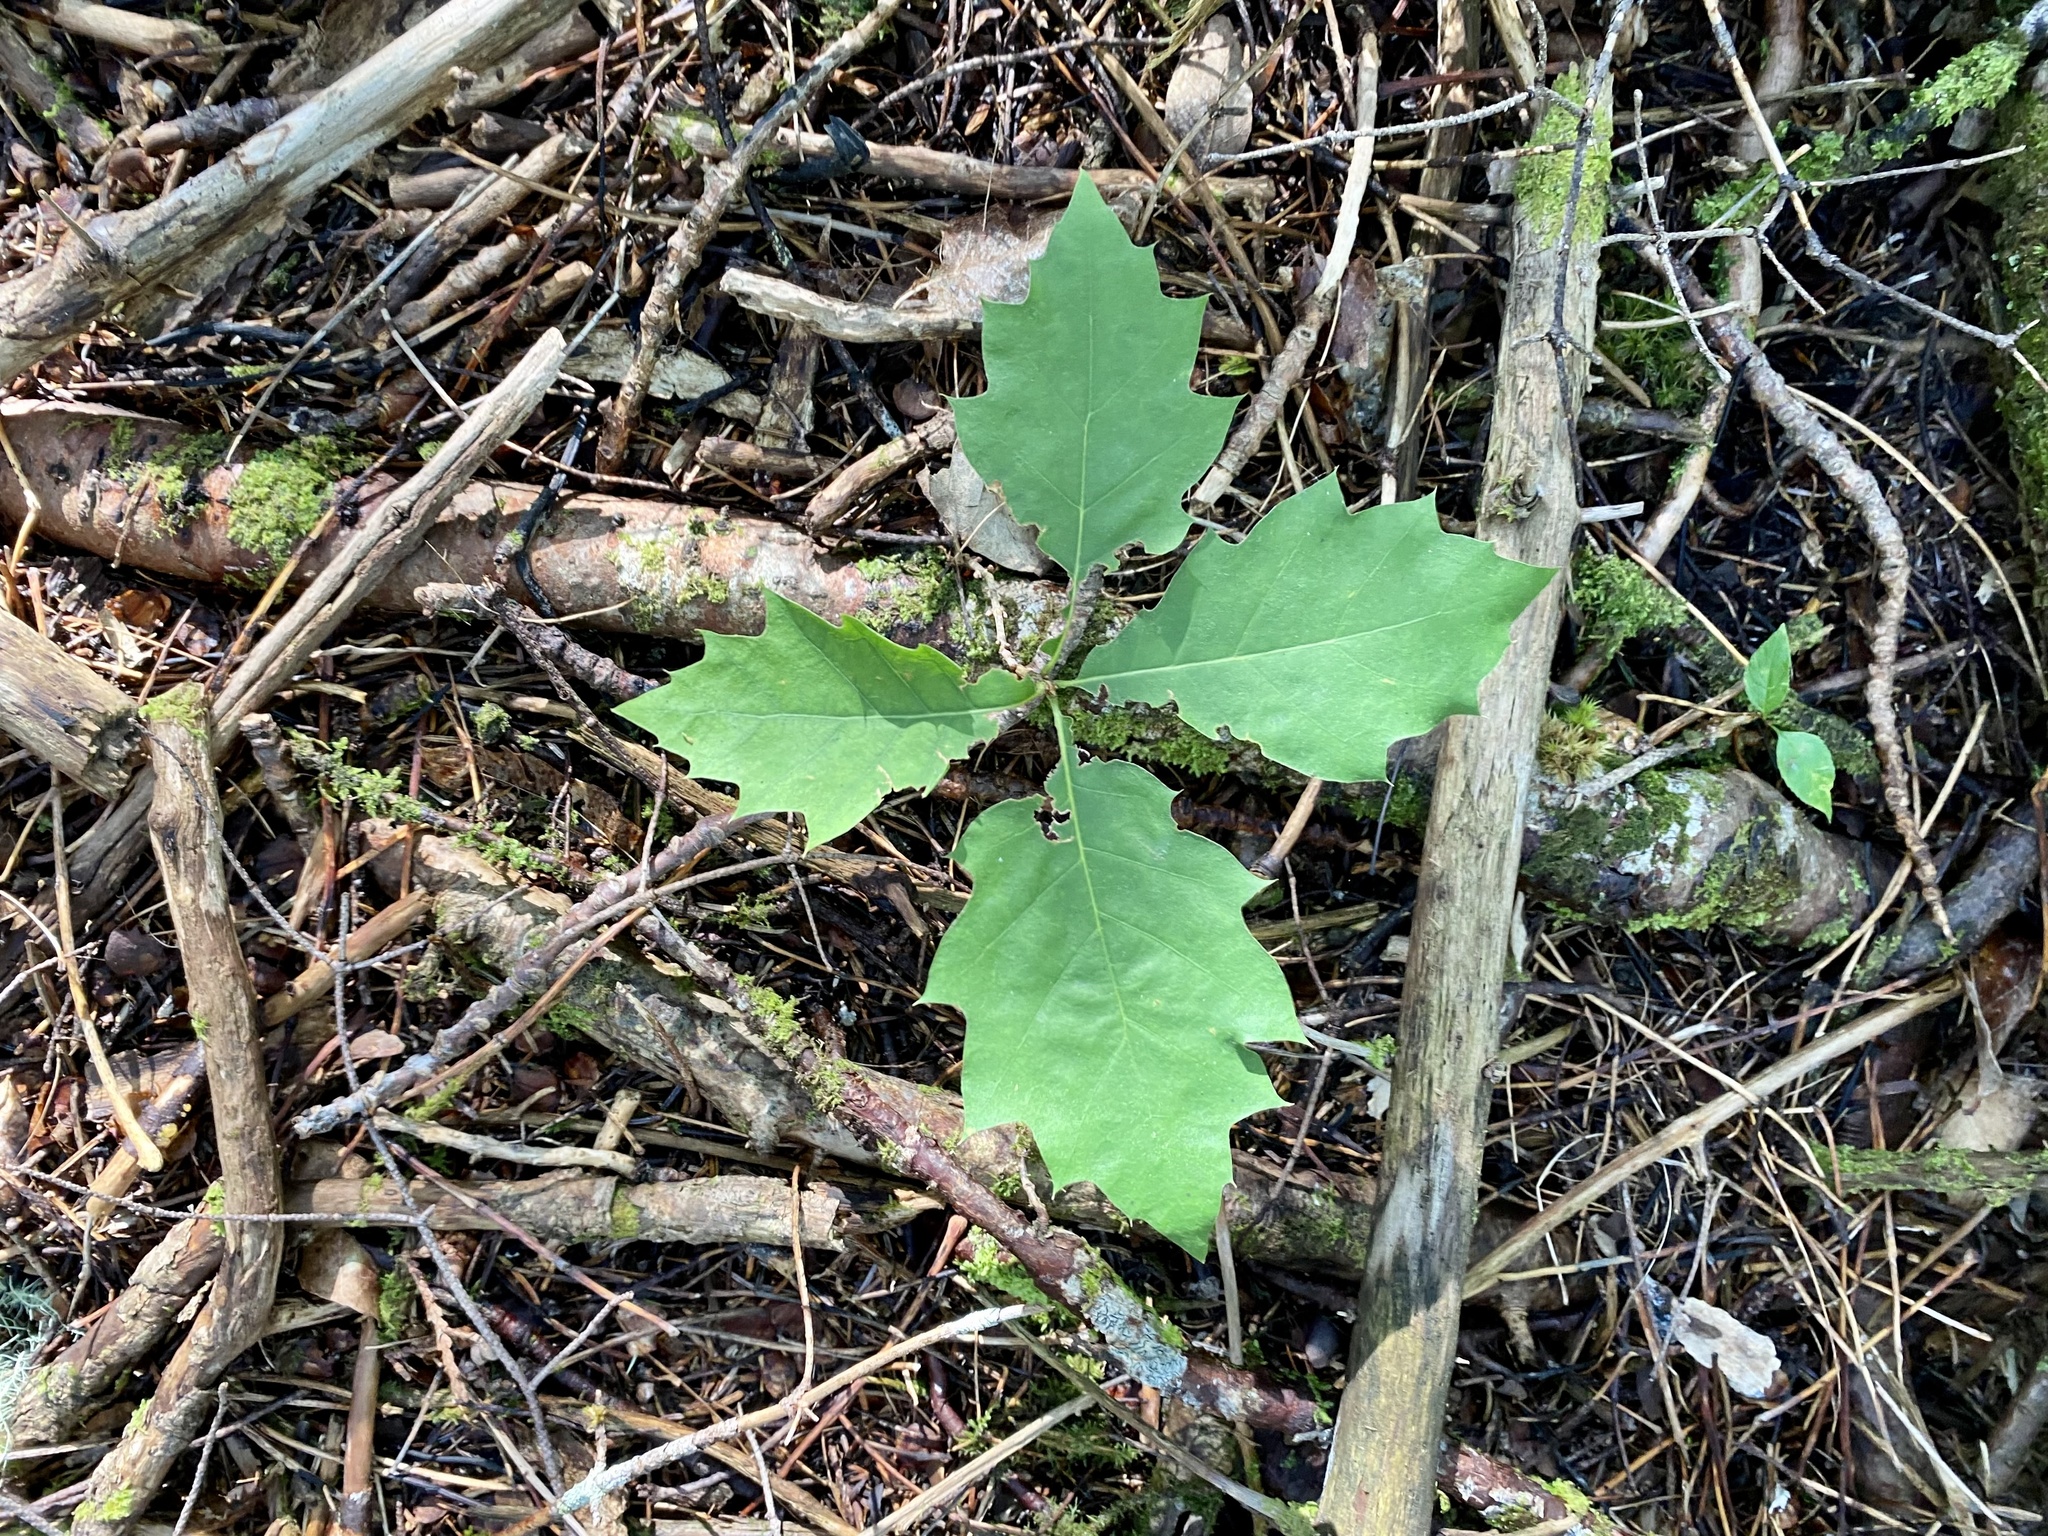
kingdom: Plantae
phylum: Tracheophyta
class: Magnoliopsida
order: Fagales
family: Fagaceae
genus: Quercus
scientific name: Quercus rubra
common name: Red oak
